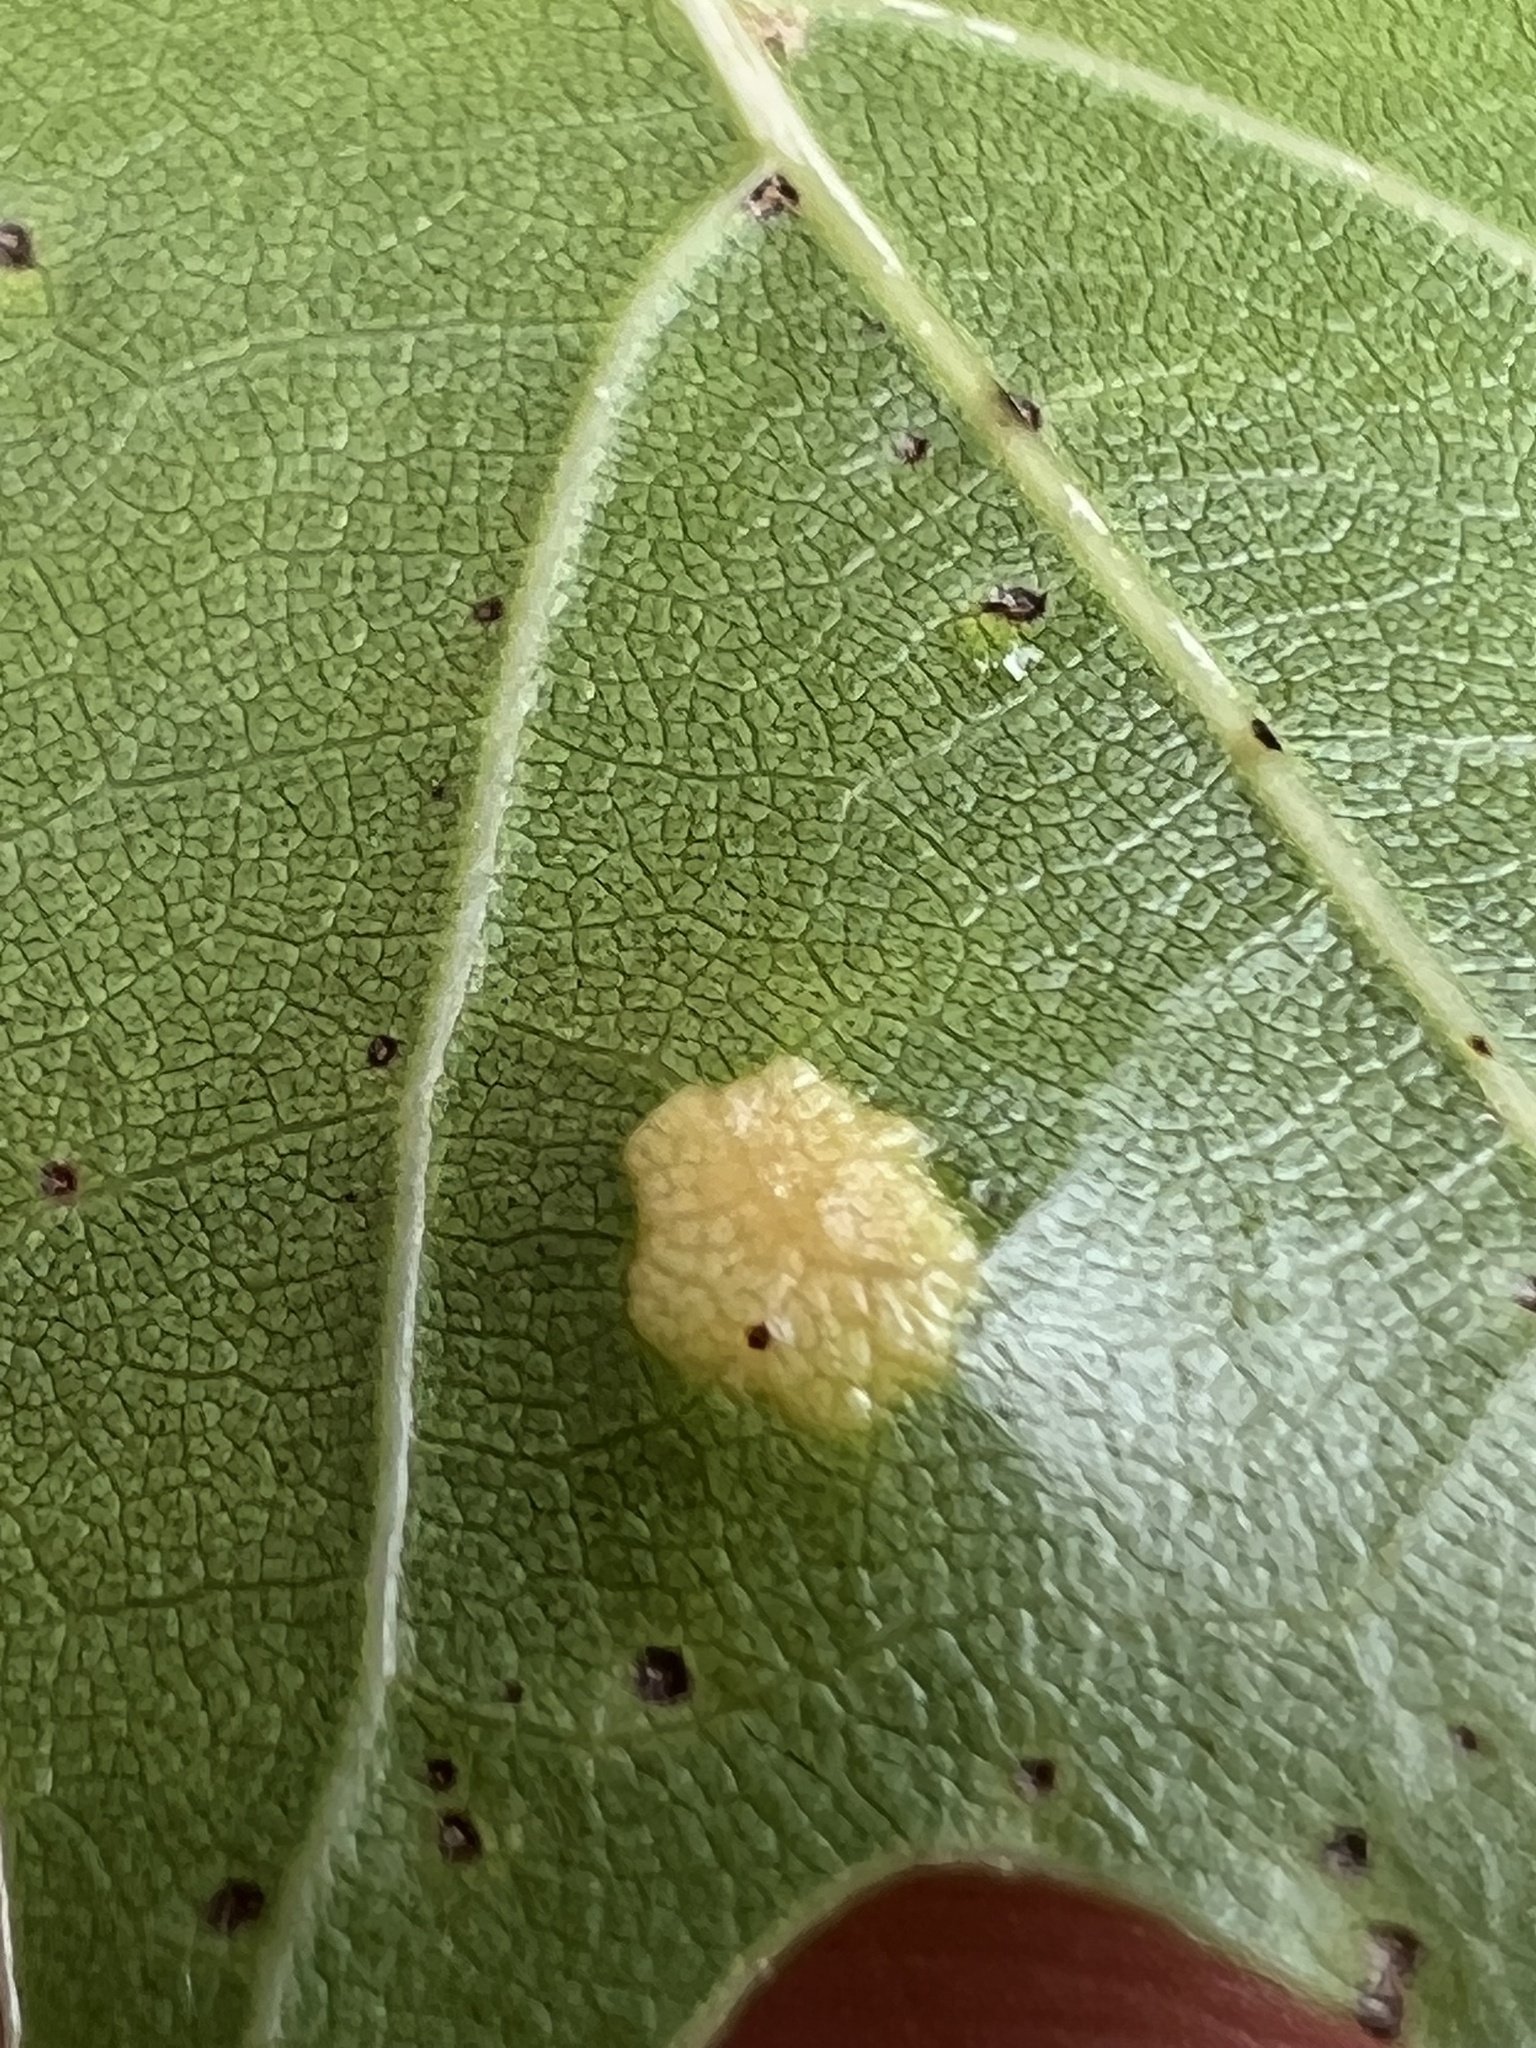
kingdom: Animalia
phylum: Arthropoda
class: Insecta
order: Diptera
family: Cecidomyiidae
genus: Polystepha
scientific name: Polystepha pilulae
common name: Oak leaf gall midge
